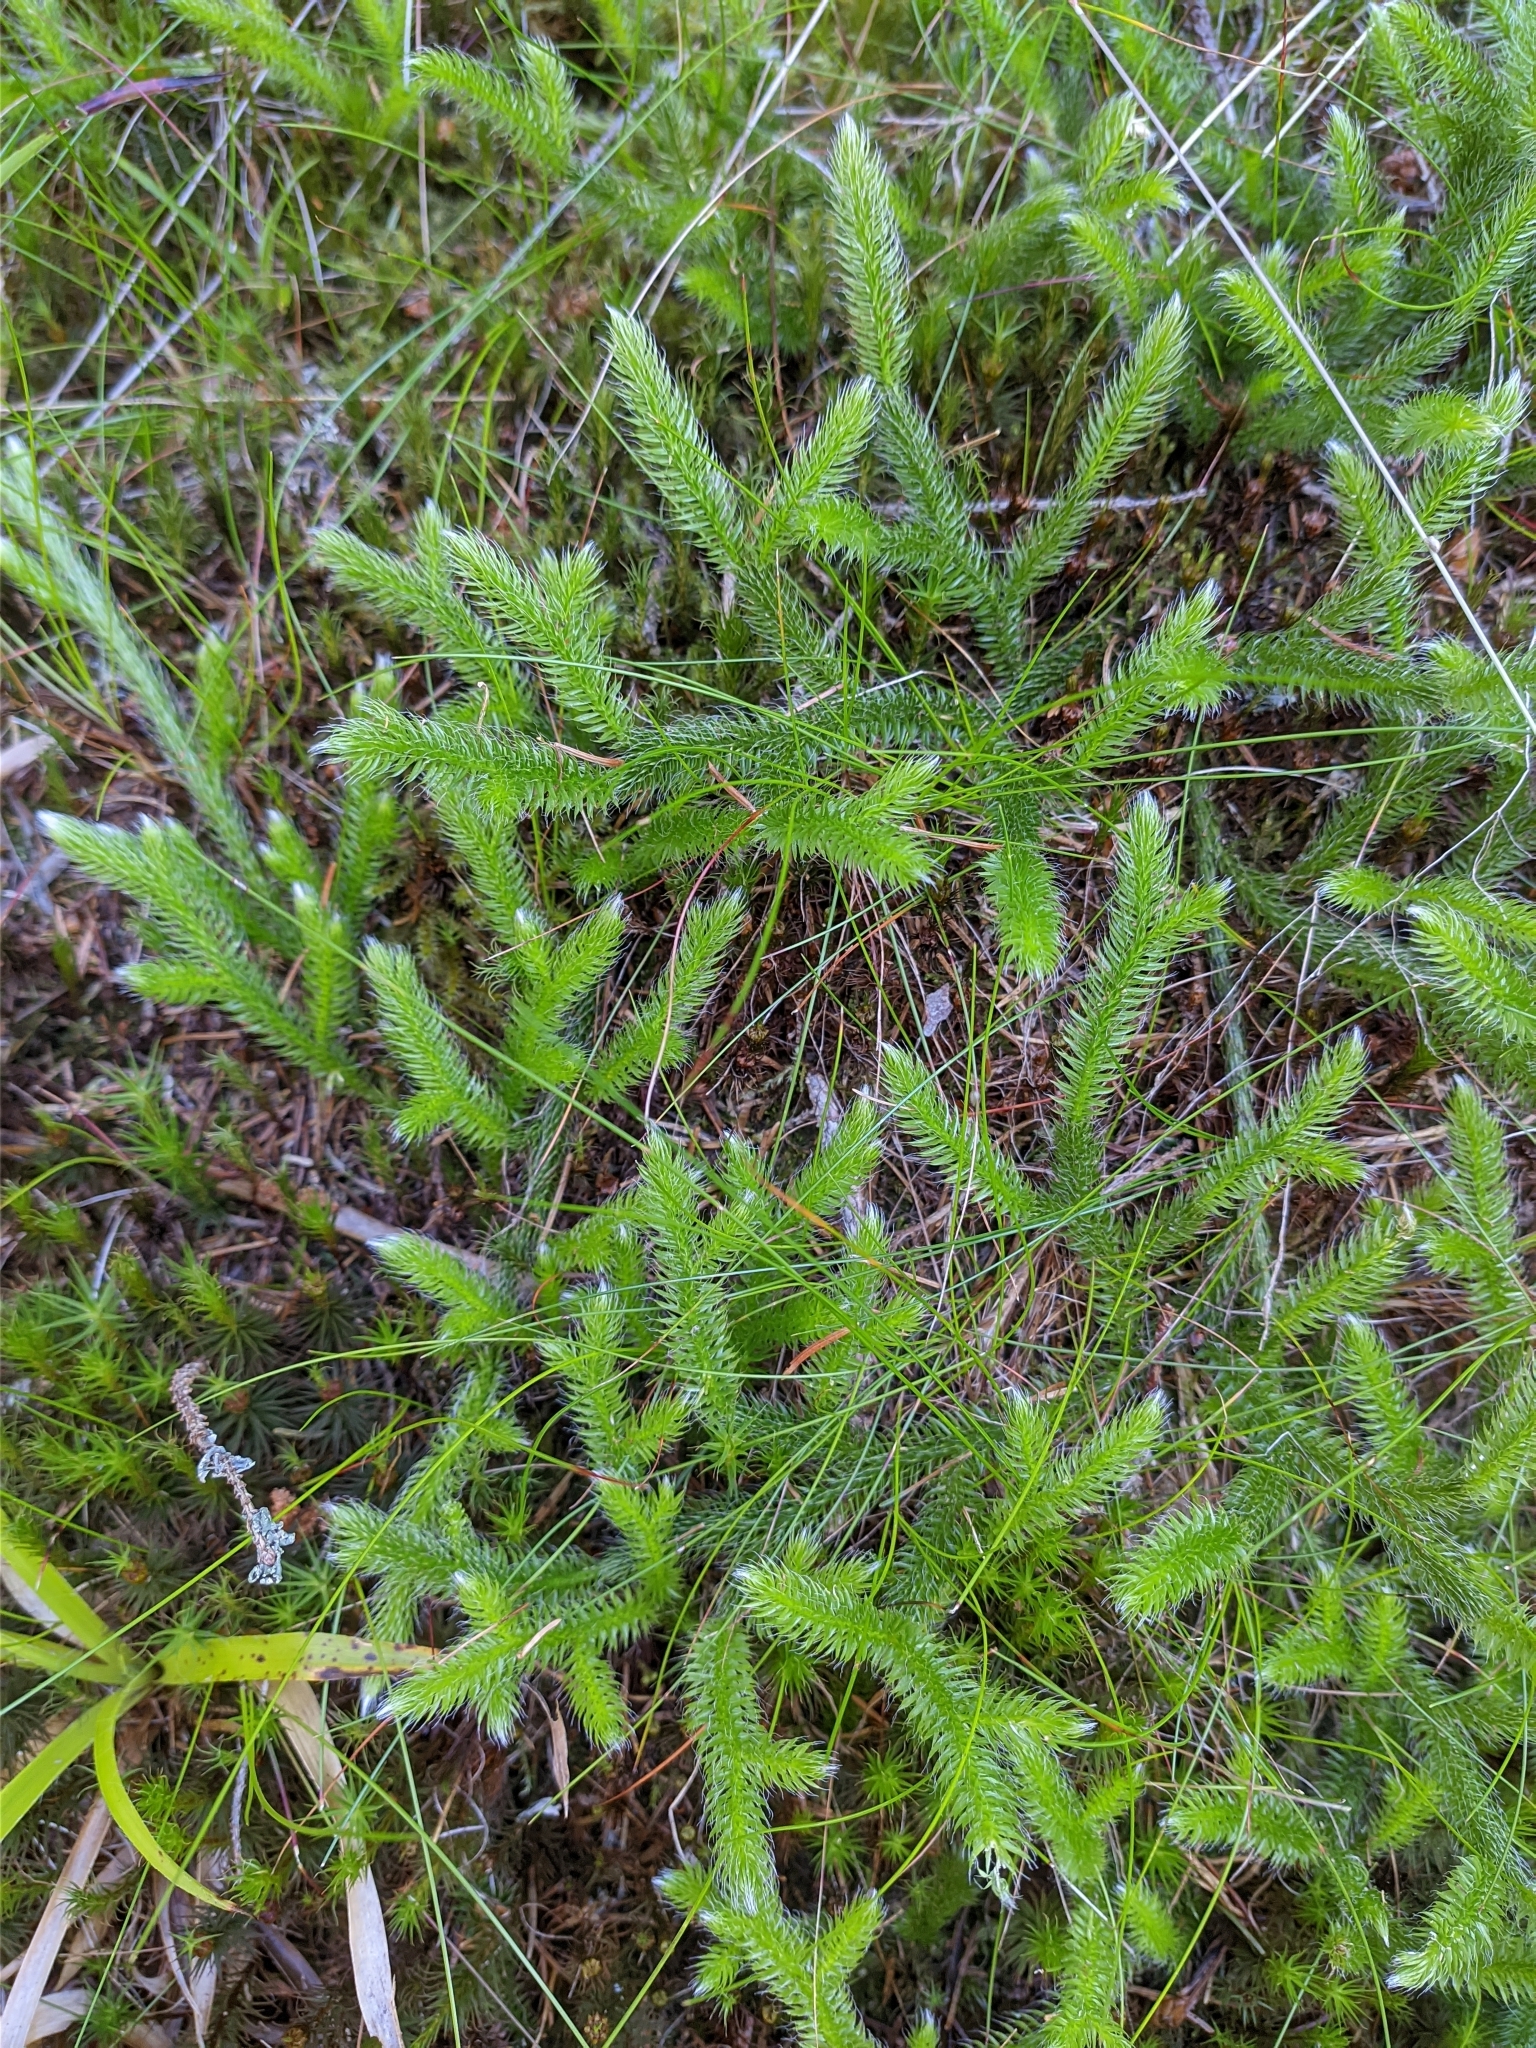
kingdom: Plantae
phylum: Tracheophyta
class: Lycopodiopsida
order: Lycopodiales
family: Lycopodiaceae
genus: Lycopodium
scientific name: Lycopodium clavatum
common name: Stag's-horn clubmoss
